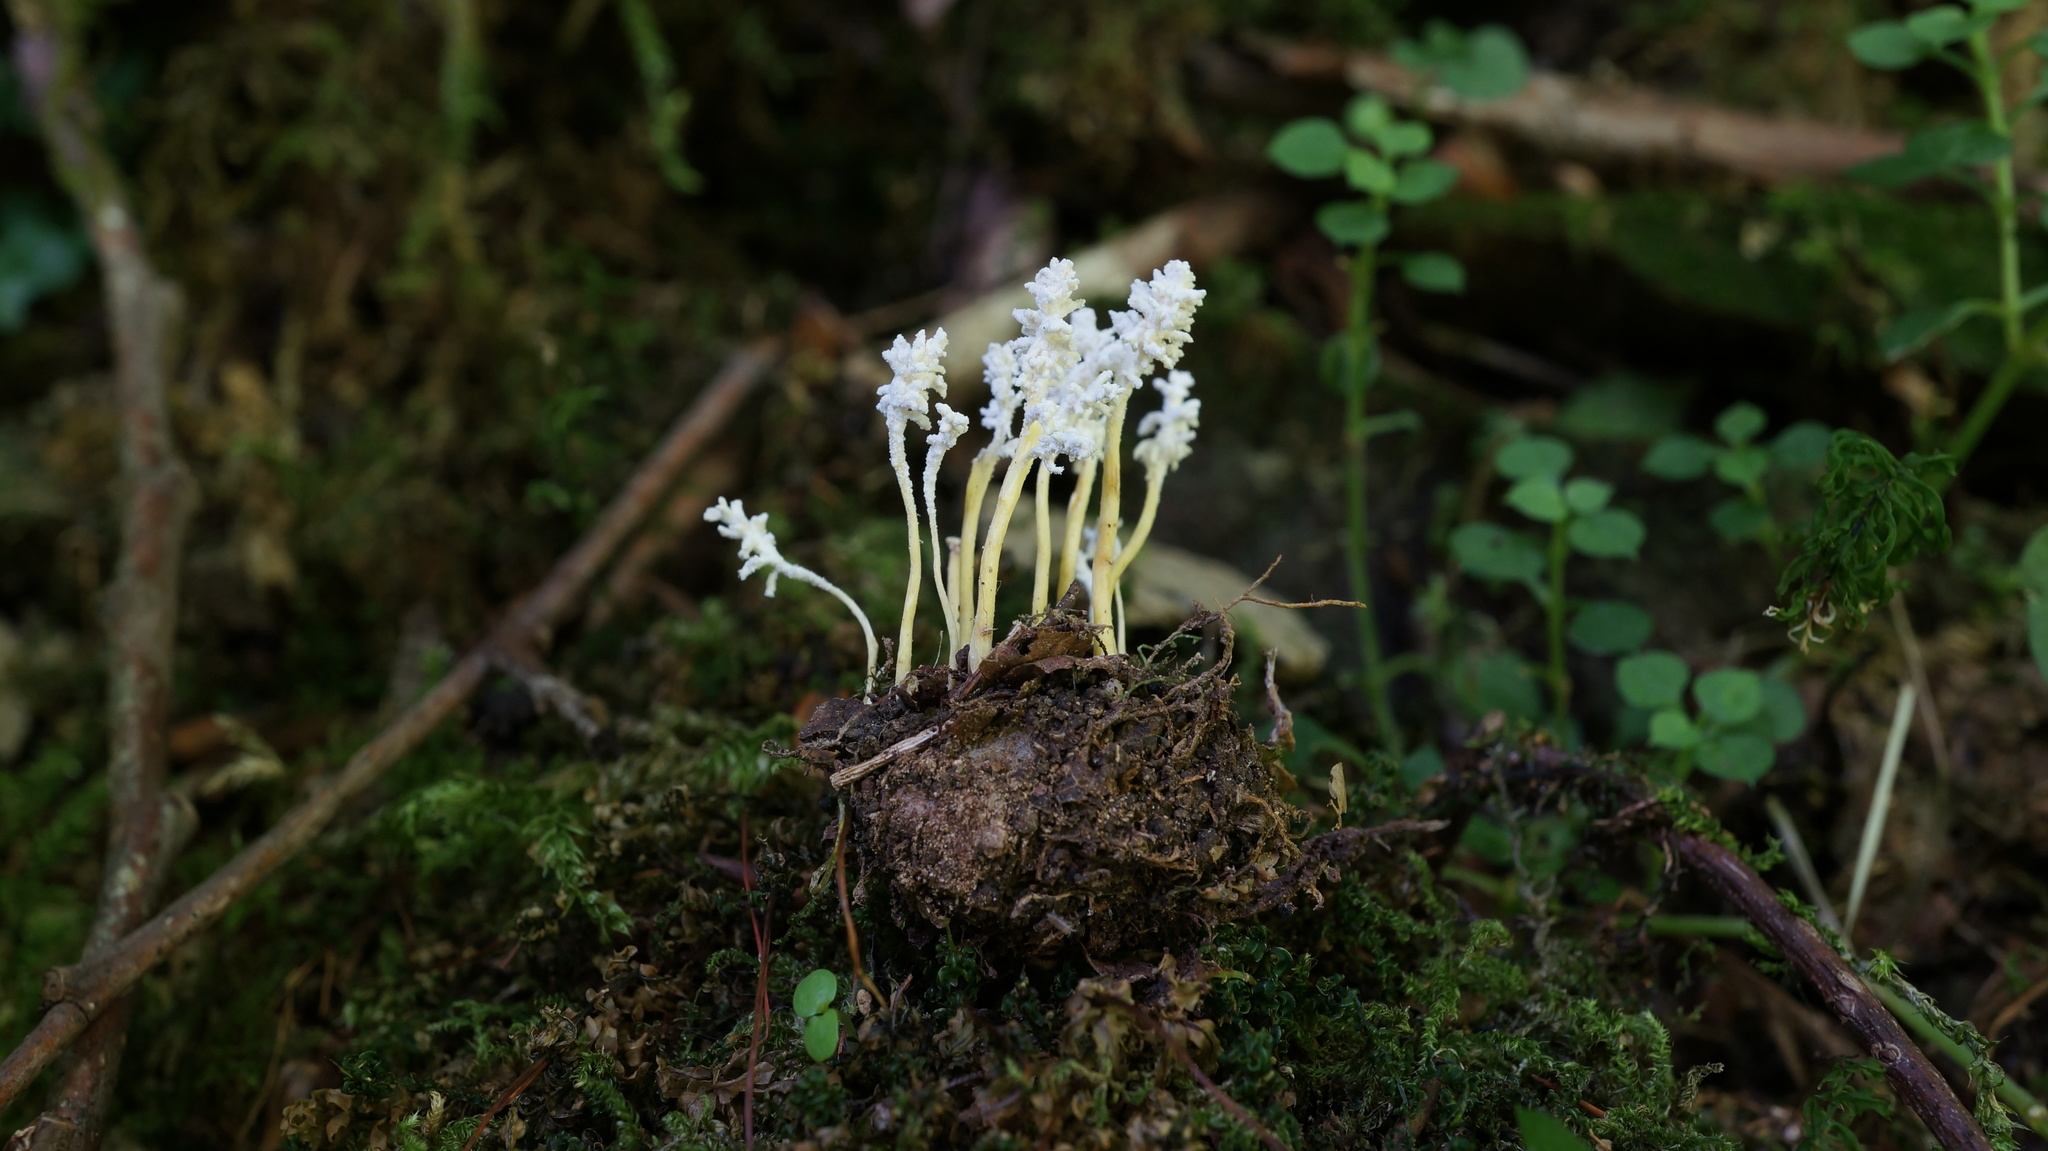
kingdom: Fungi
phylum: Ascomycota
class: Sordariomycetes
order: Hypocreales
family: Cordycipitaceae
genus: Cordyceps
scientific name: Cordyceps tenuipes
